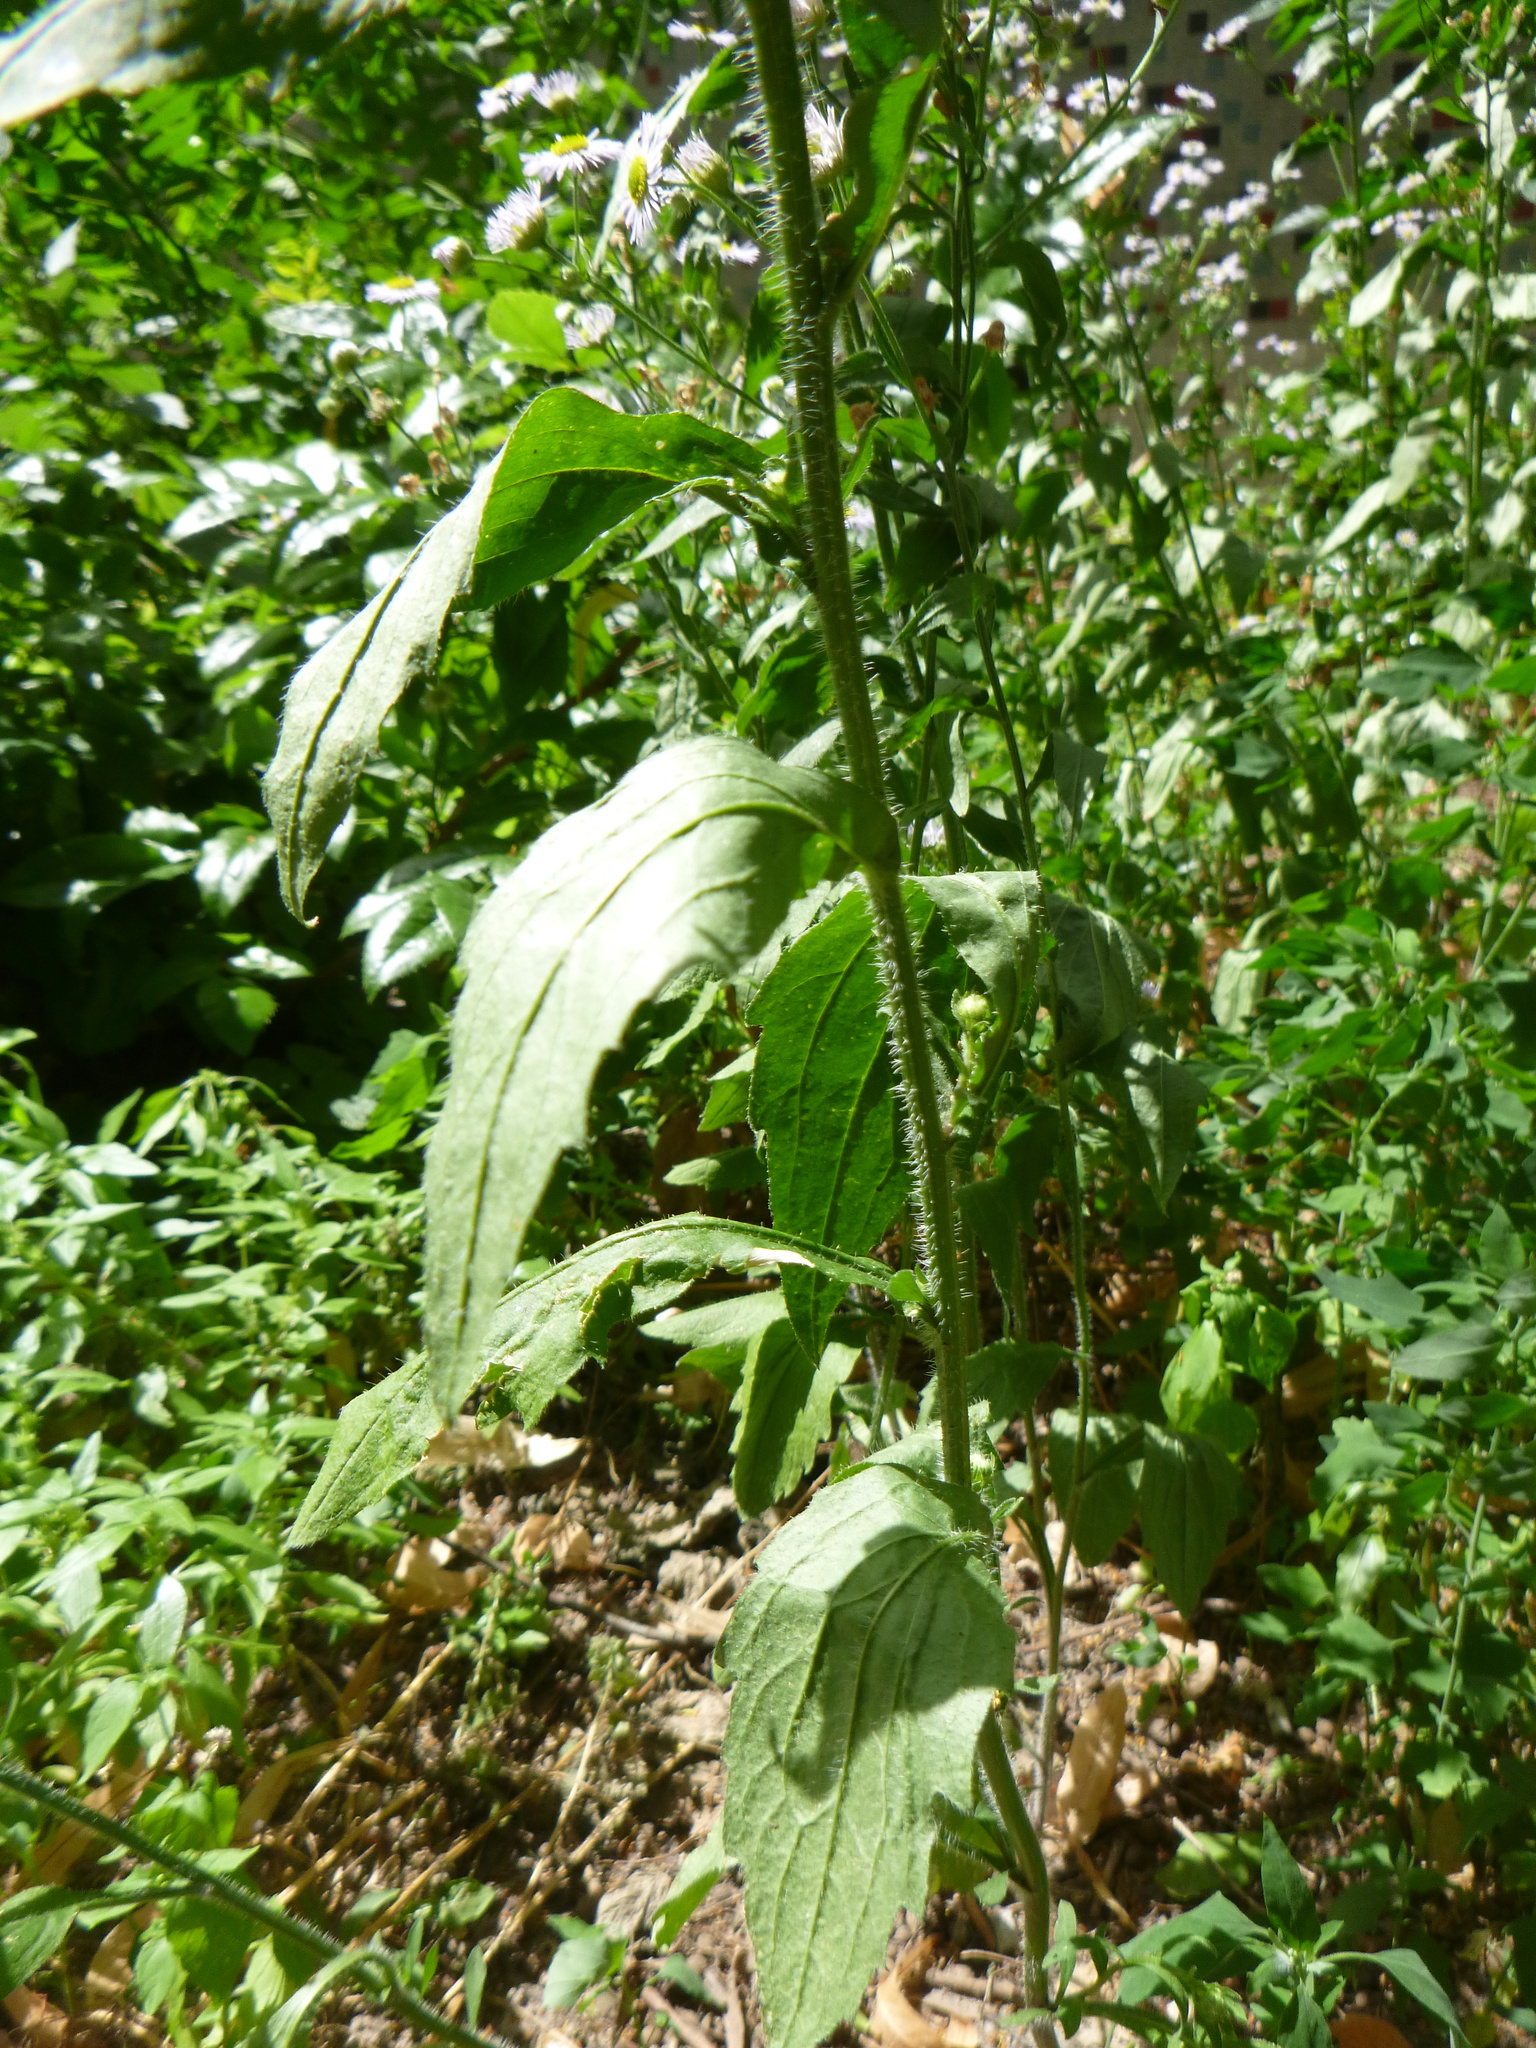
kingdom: Plantae
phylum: Tracheophyta
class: Magnoliopsida
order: Asterales
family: Asteraceae
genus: Erigeron
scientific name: Erigeron annuus
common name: Tall fleabane
